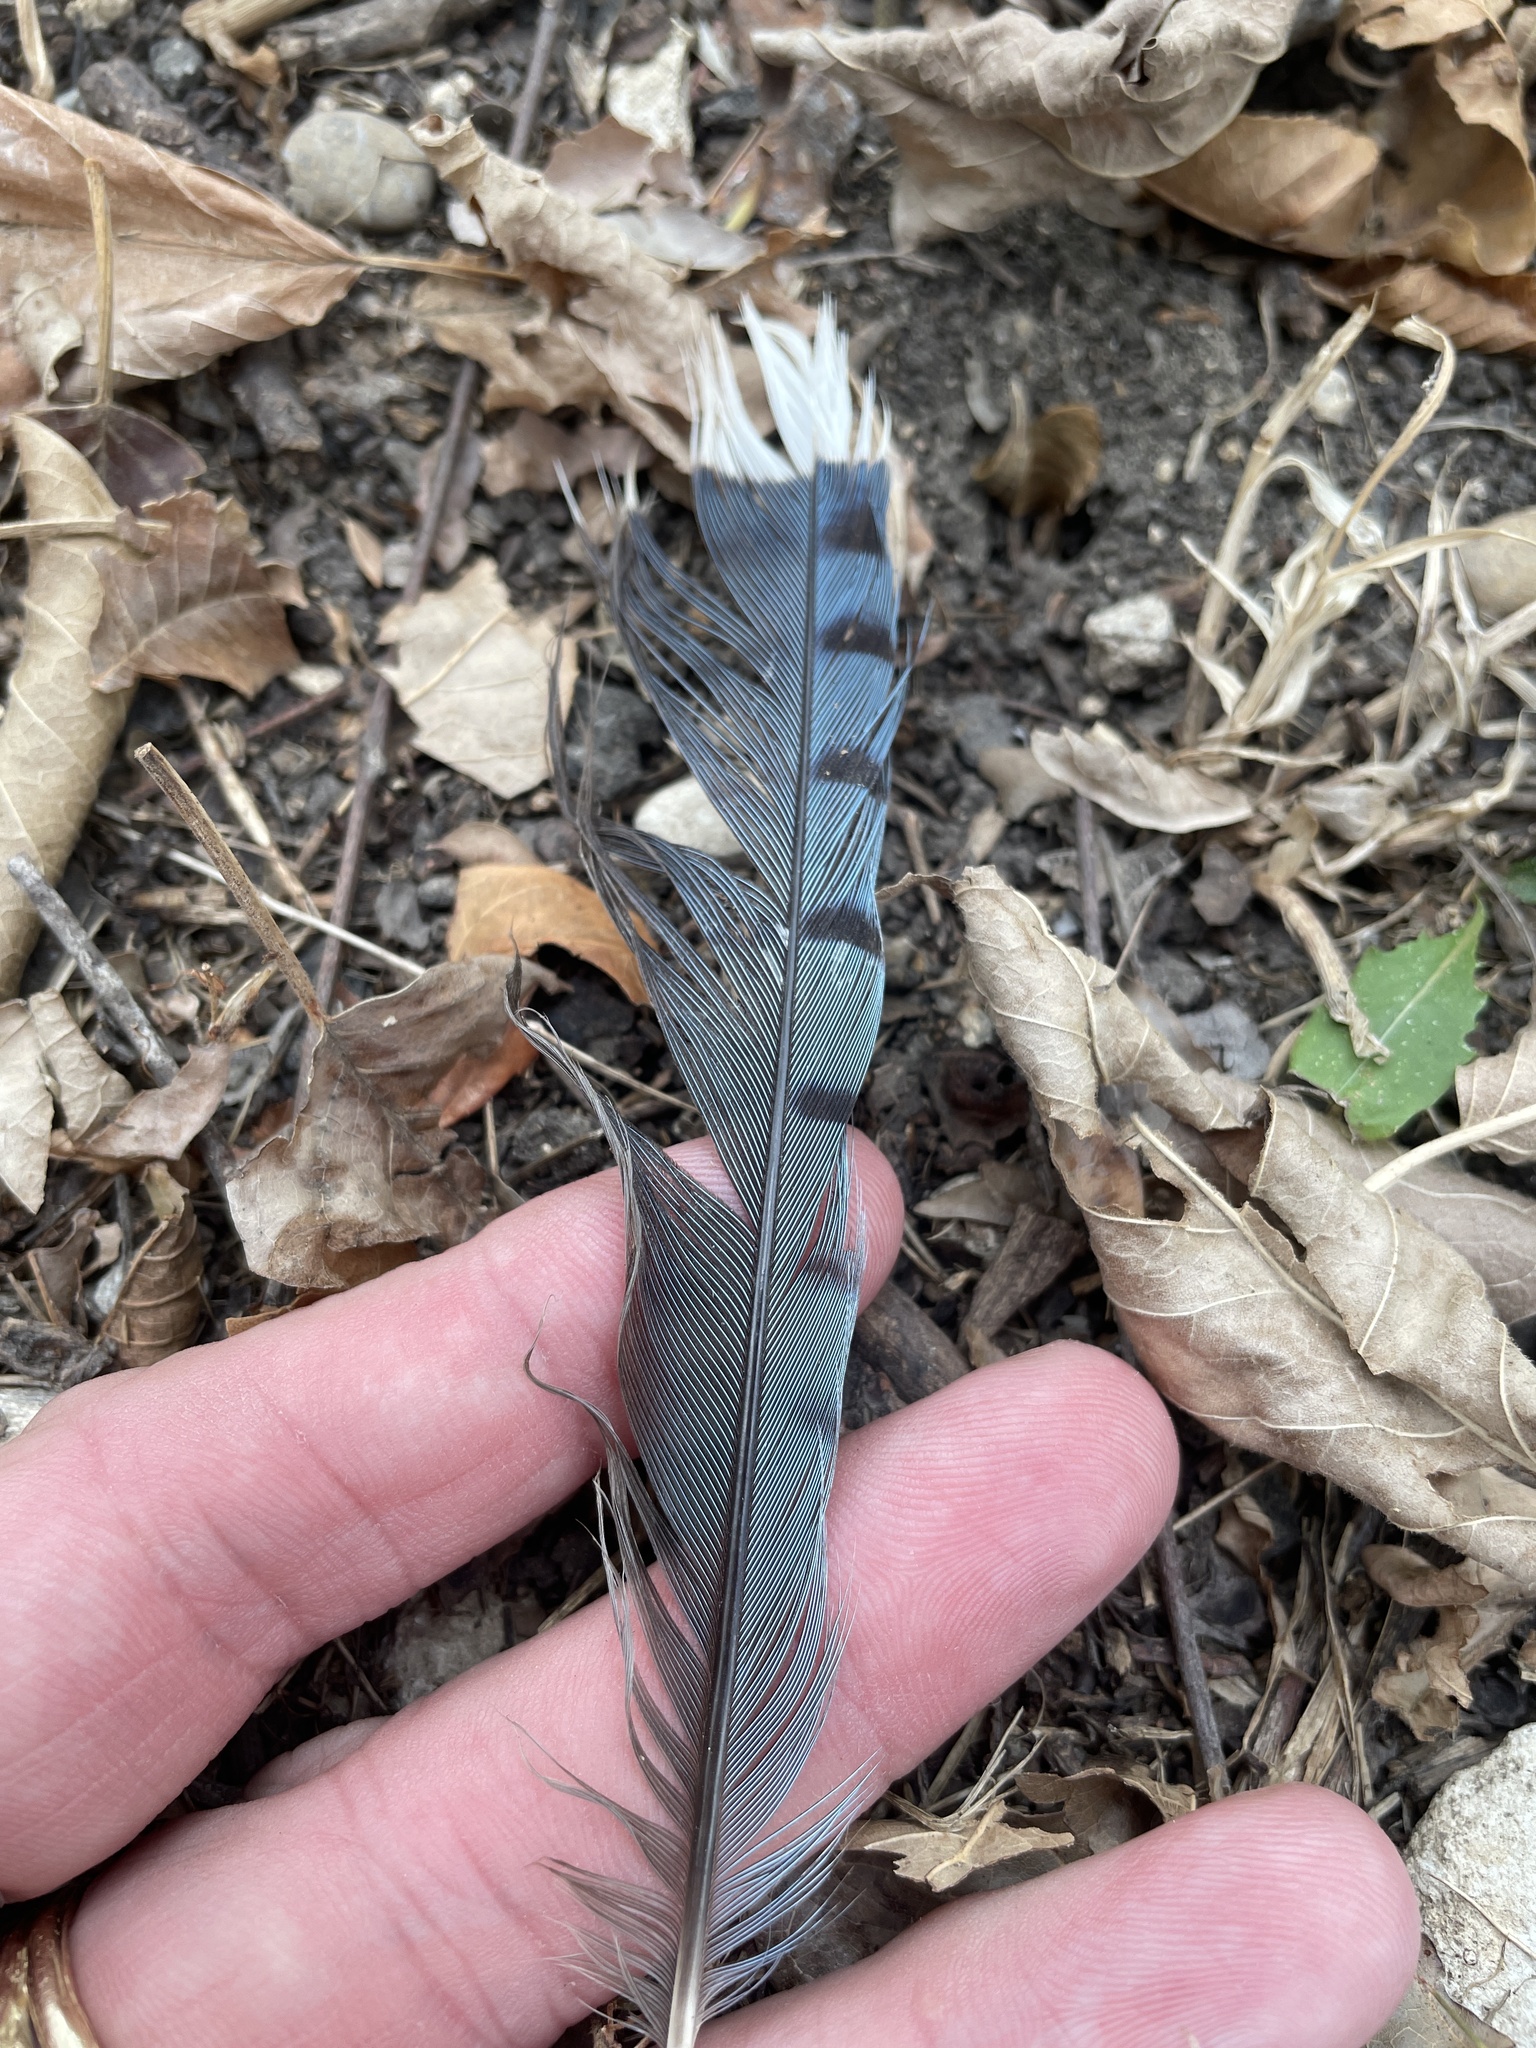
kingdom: Animalia
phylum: Chordata
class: Aves
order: Passeriformes
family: Corvidae
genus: Cyanocitta
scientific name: Cyanocitta cristata
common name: Blue jay
